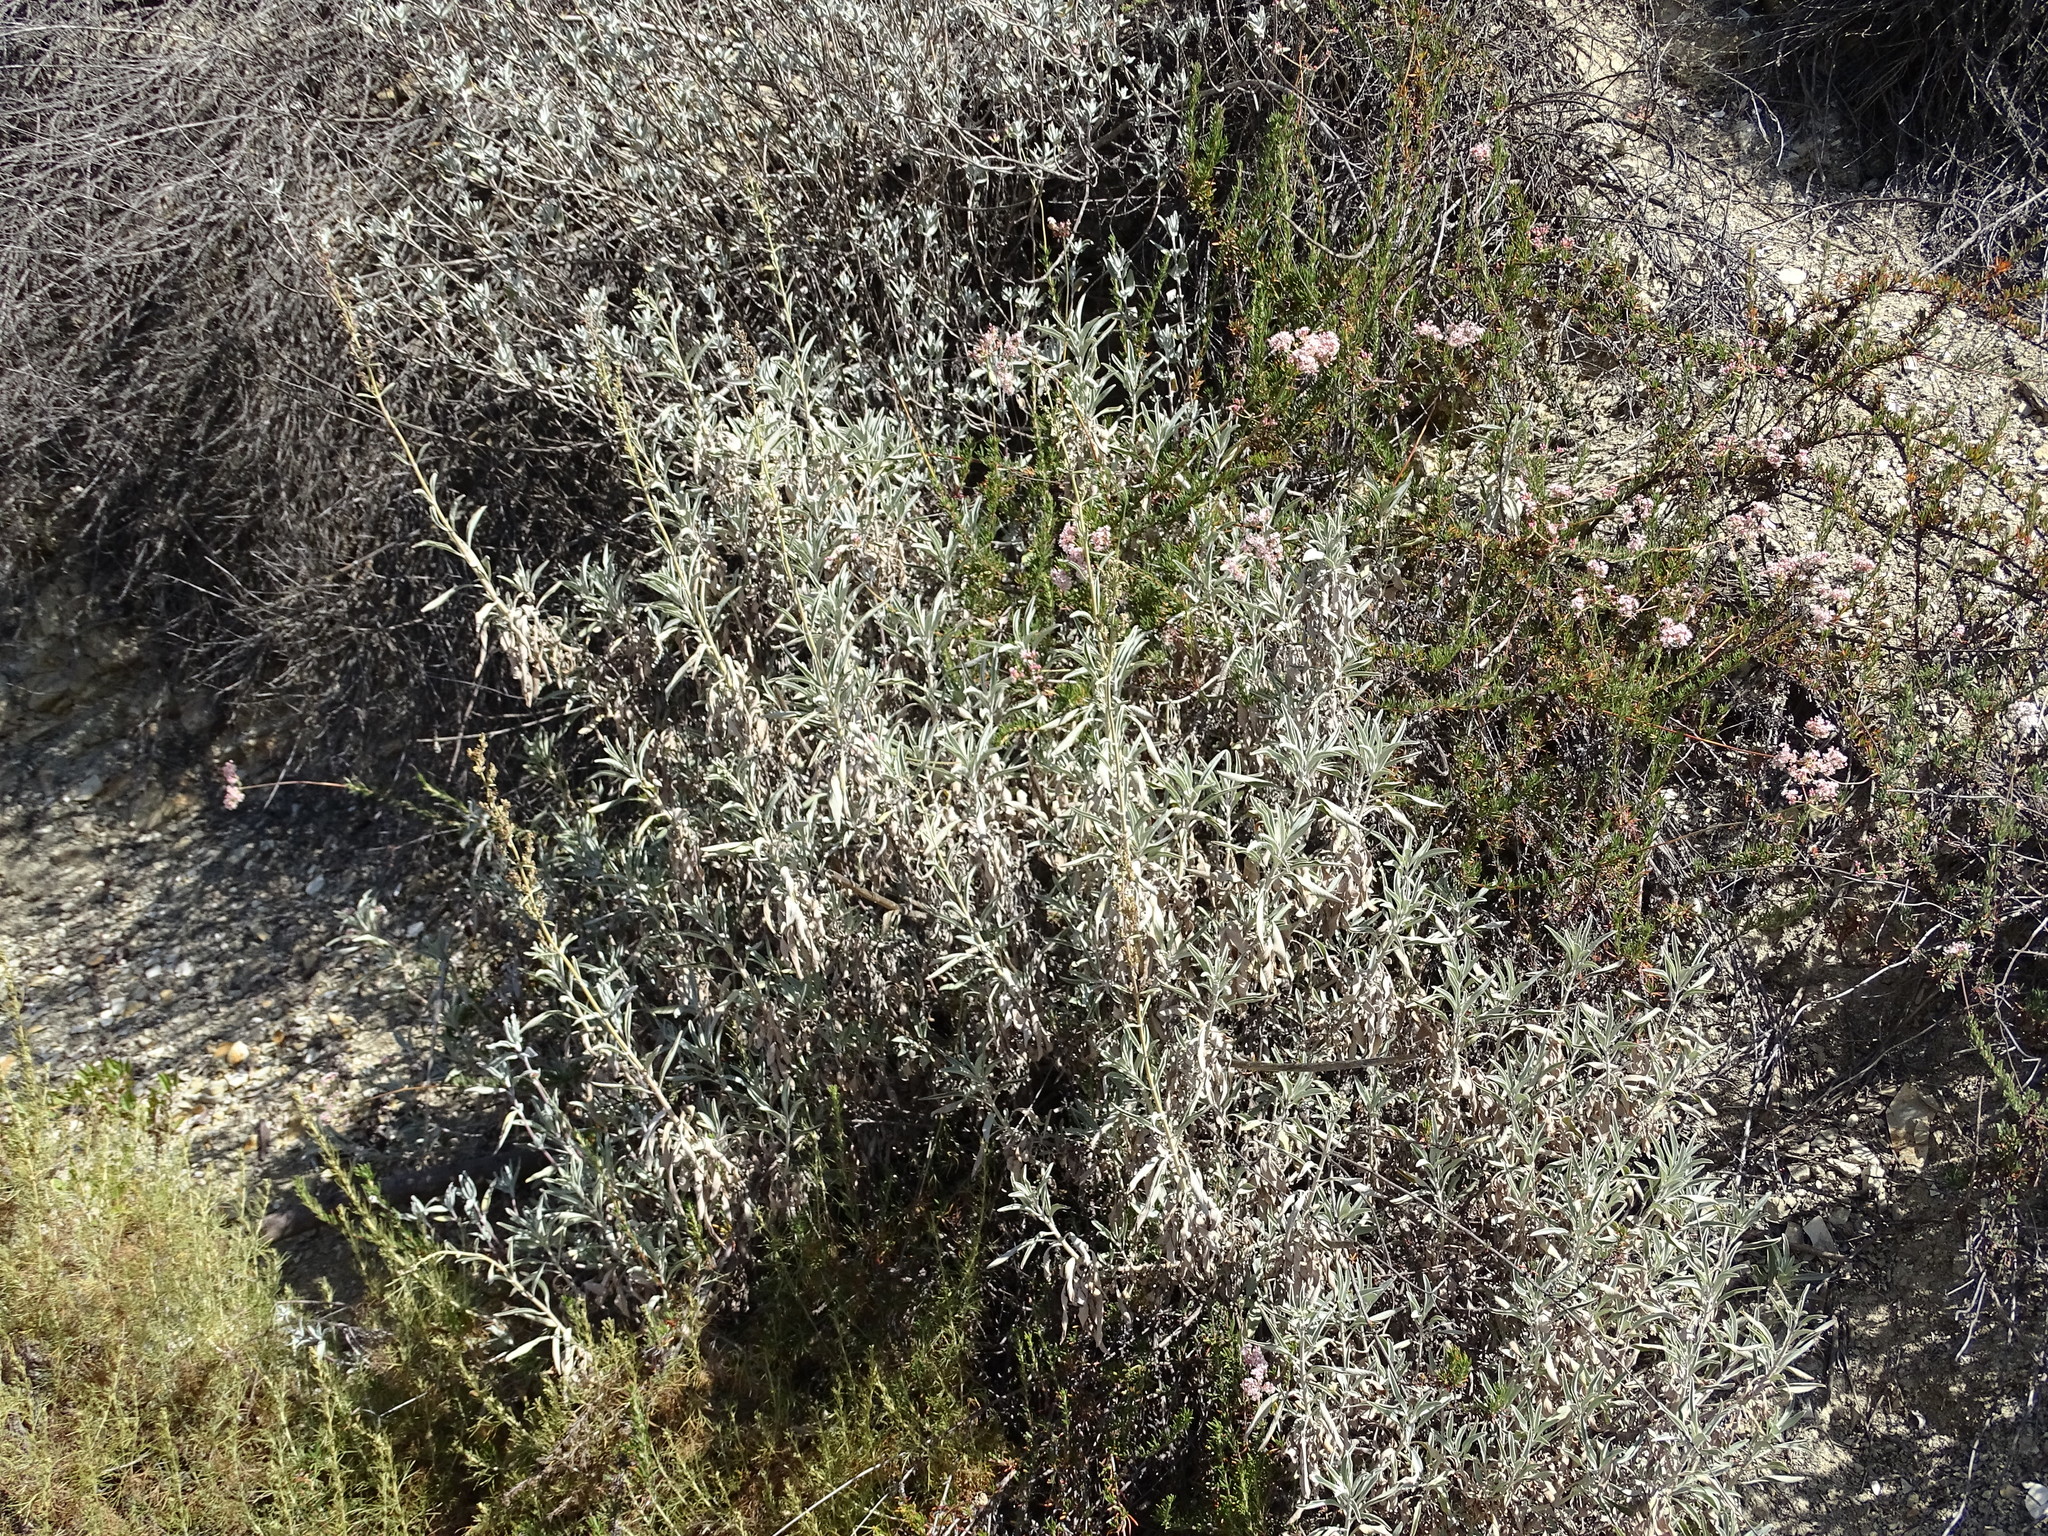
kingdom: Plantae
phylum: Tracheophyta
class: Magnoliopsida
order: Lamiales
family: Lamiaceae
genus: Salvia
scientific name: Salvia apiana
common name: White sage
